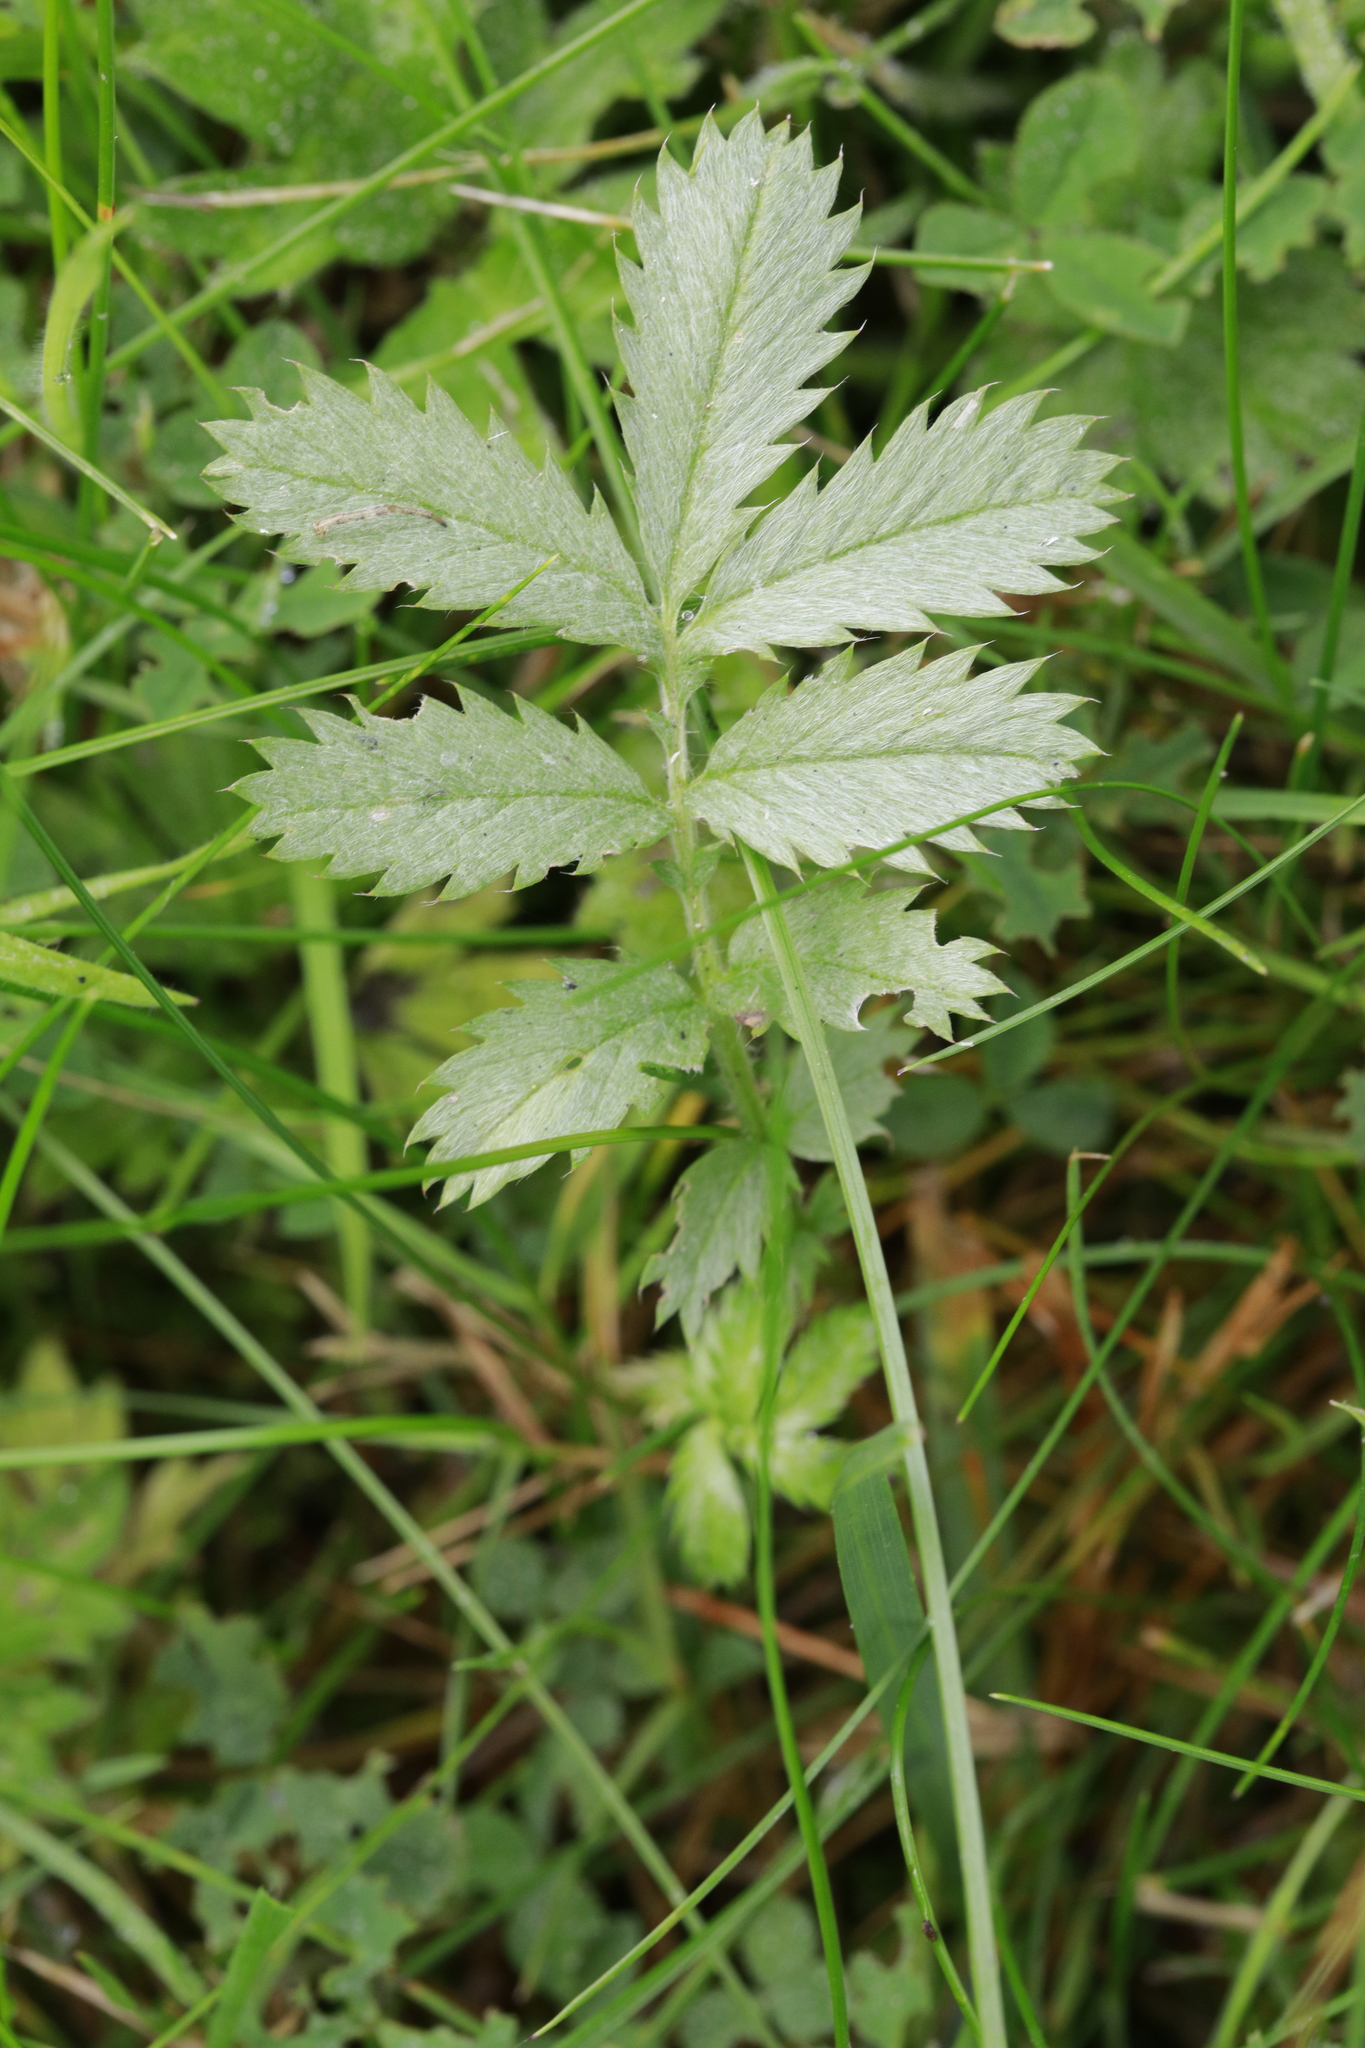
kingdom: Plantae
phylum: Tracheophyta
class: Magnoliopsida
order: Rosales
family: Rosaceae
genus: Argentina
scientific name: Argentina anserina
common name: Common silverweed
